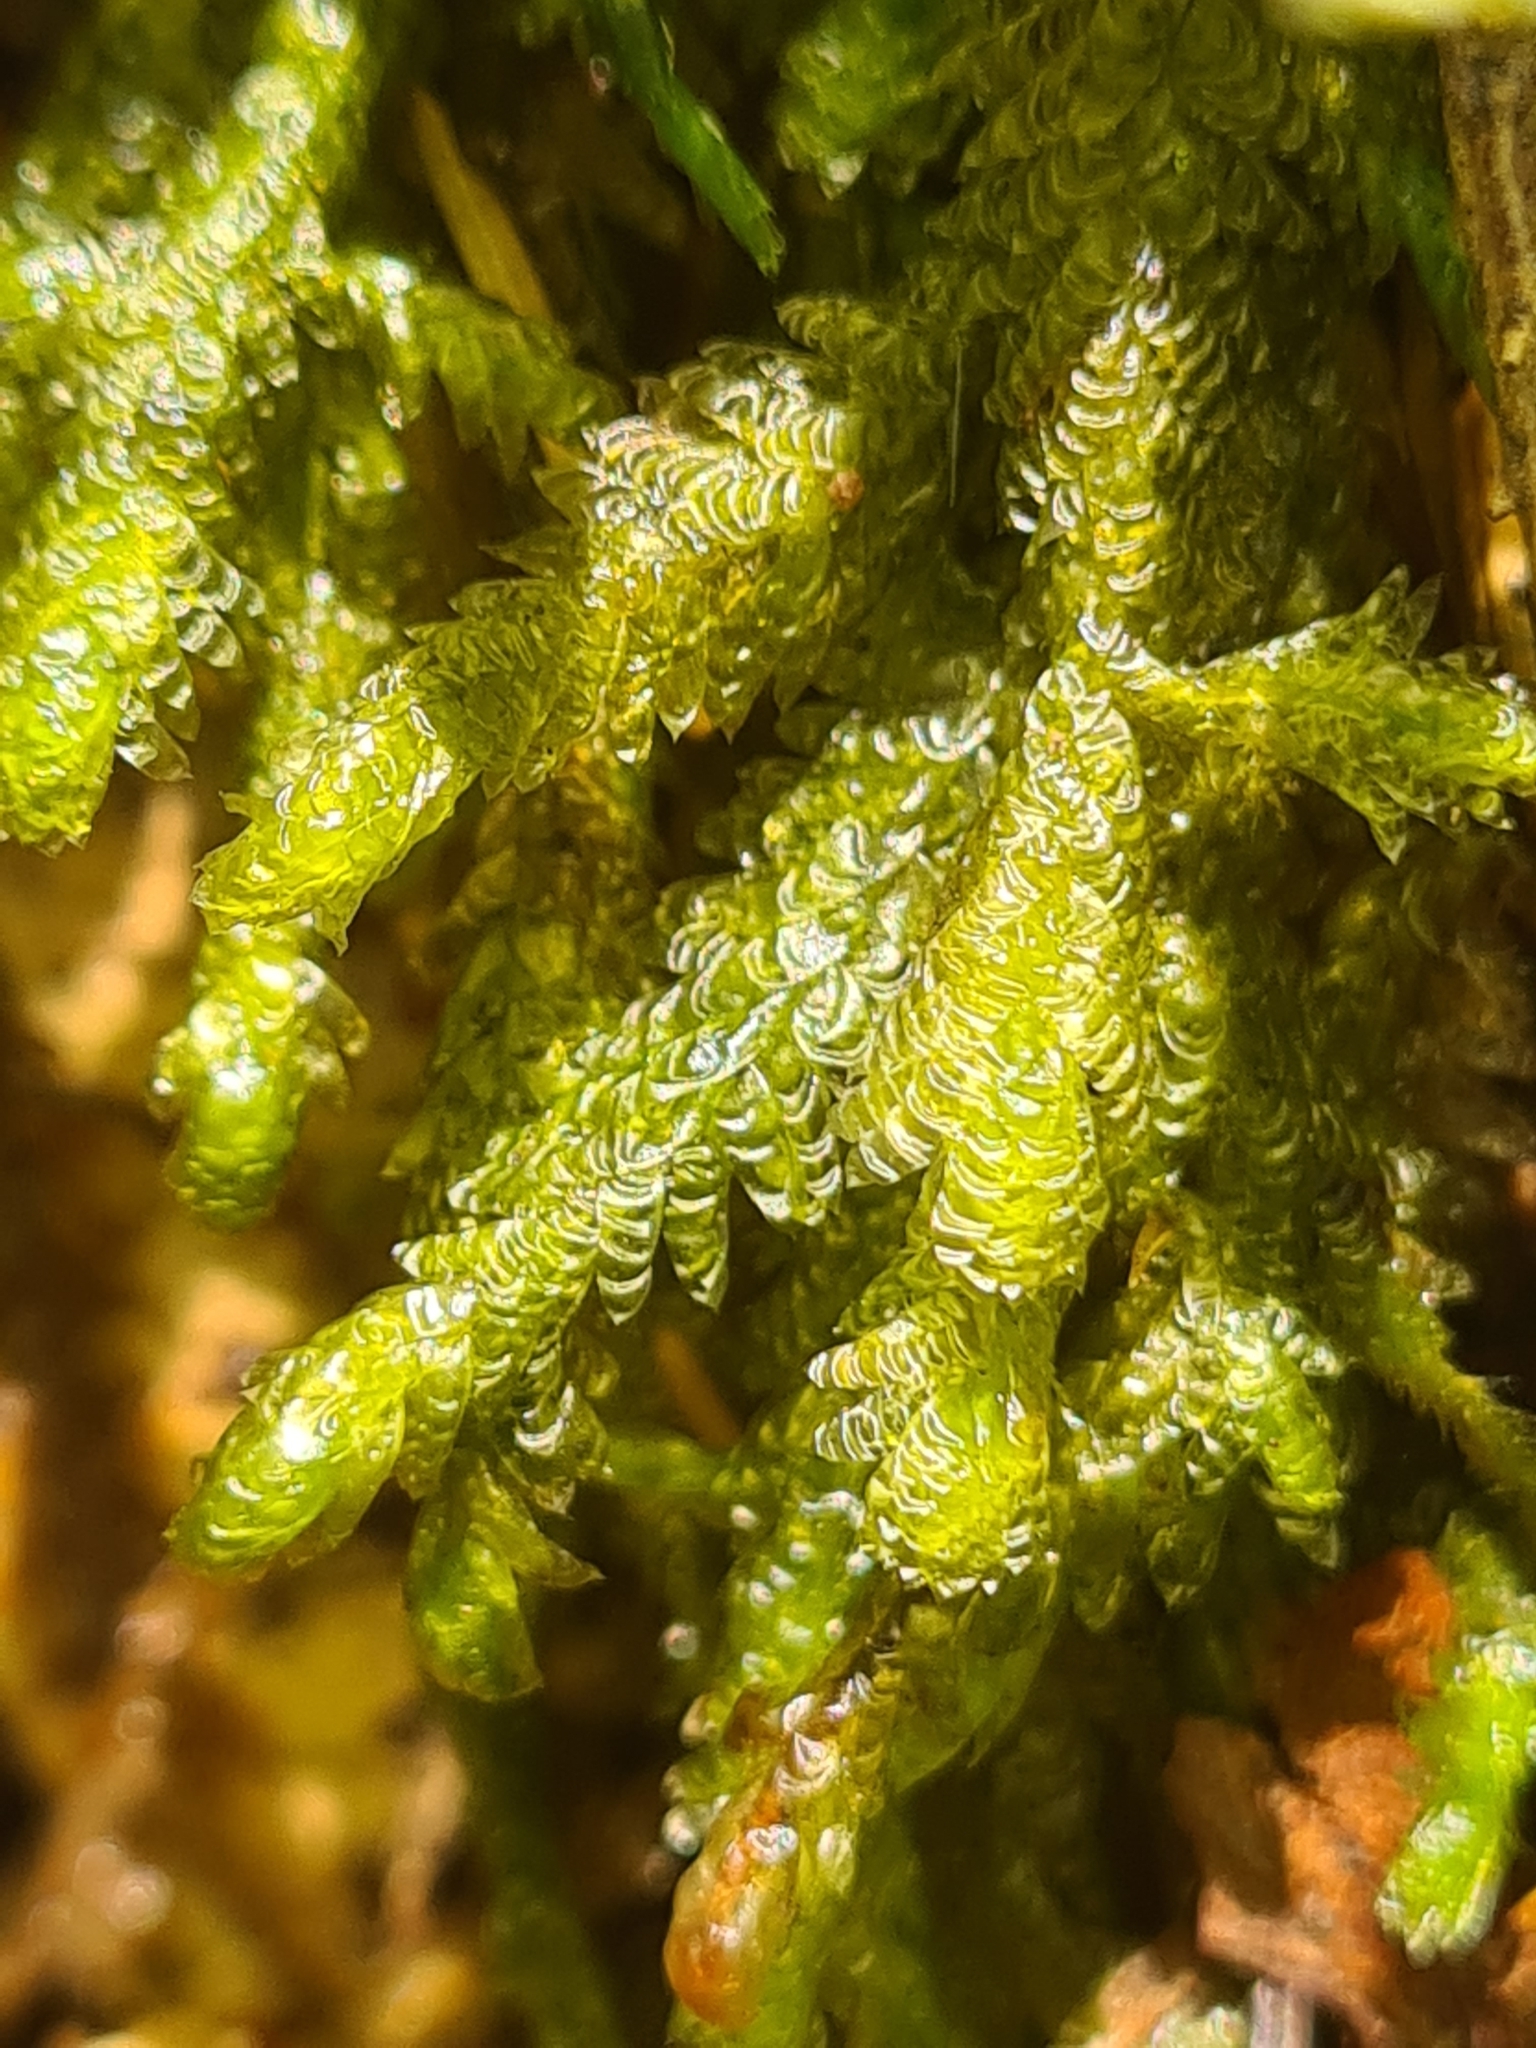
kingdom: Plantae
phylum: Bryophyta
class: Bryopsida
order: Hypnales
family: Neckeraceae
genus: Exsertotheca
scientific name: Exsertotheca crispa
